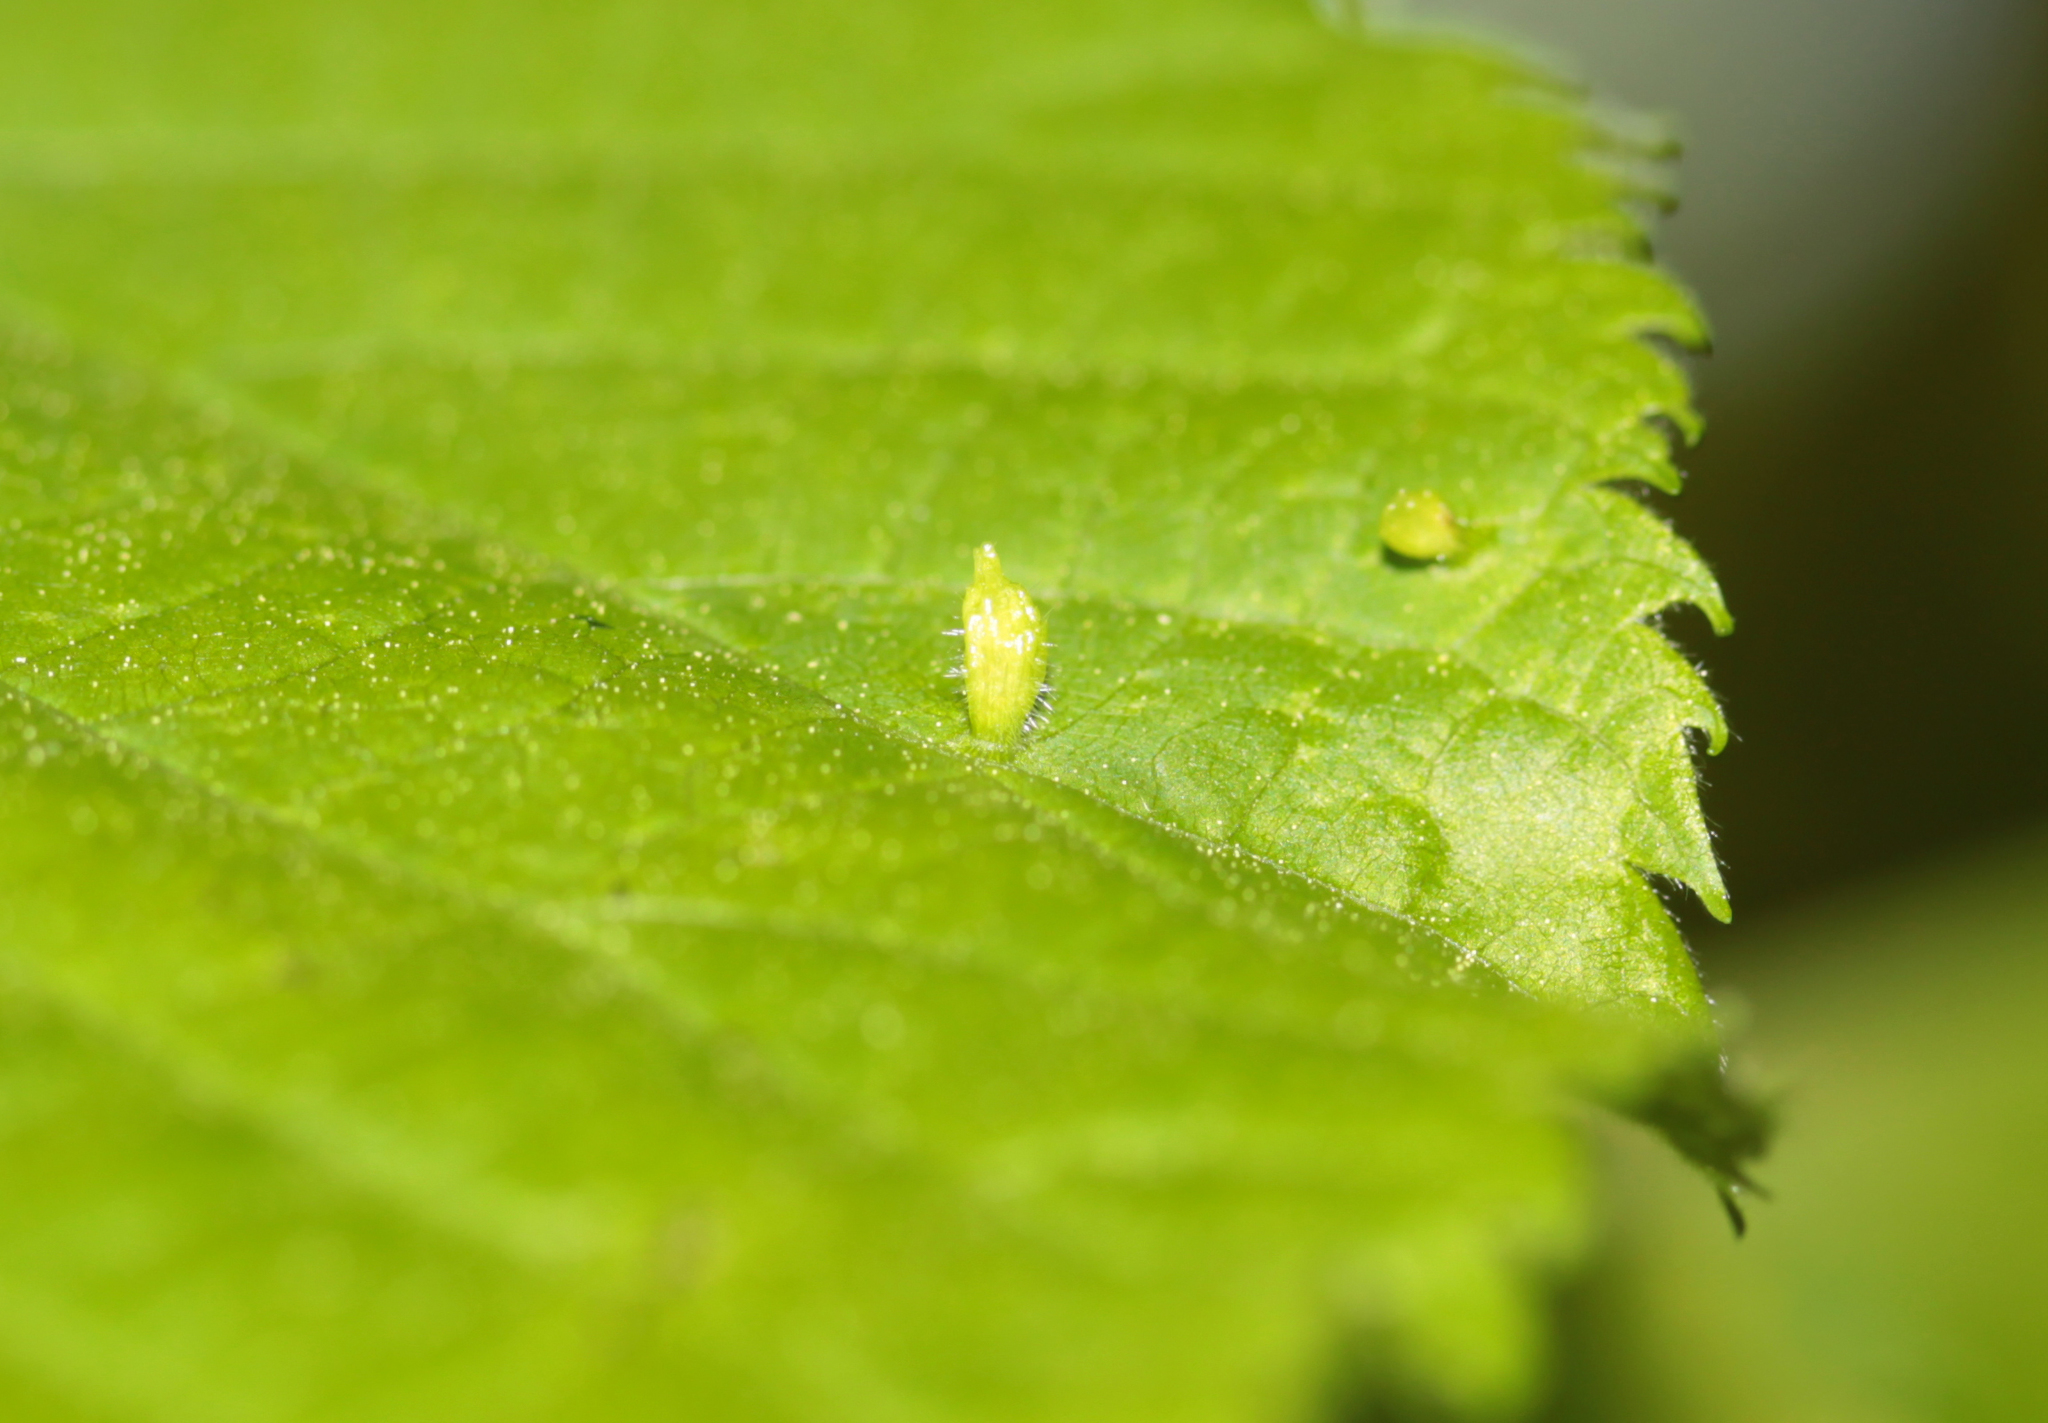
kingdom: Animalia
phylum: Arthropoda
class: Arachnida
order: Trombidiformes
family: Eriophyidae
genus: Eriophyes
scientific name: Eriophyes tiliae
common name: Red nail gall mite
